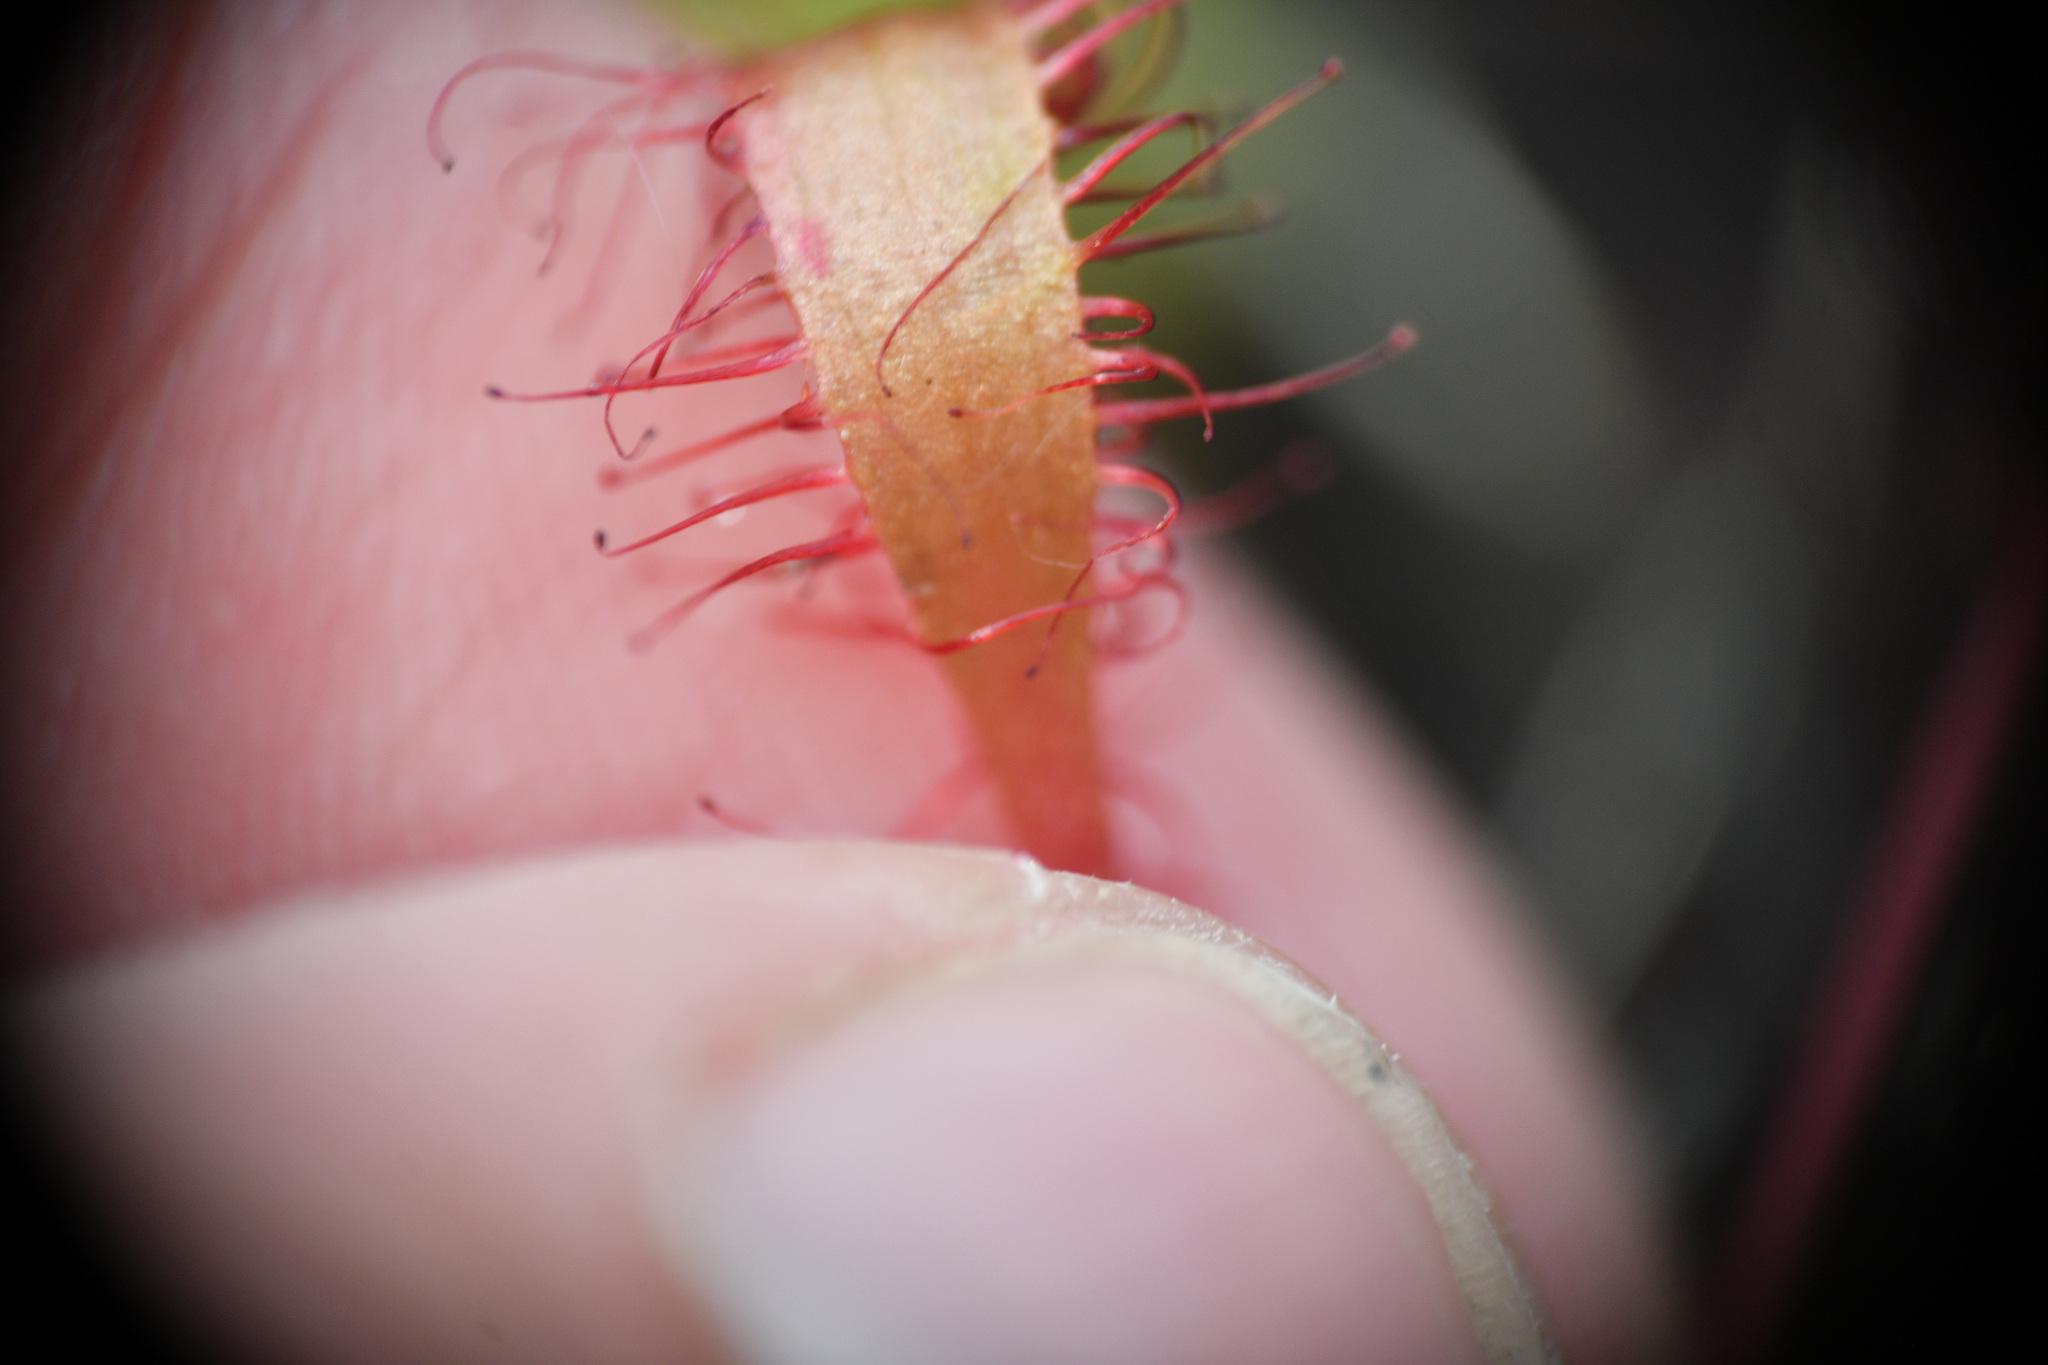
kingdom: Plantae
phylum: Tracheophyta
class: Magnoliopsida
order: Caryophyllales
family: Droseraceae
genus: Drosera
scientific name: Drosera anglica
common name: Great sundew
